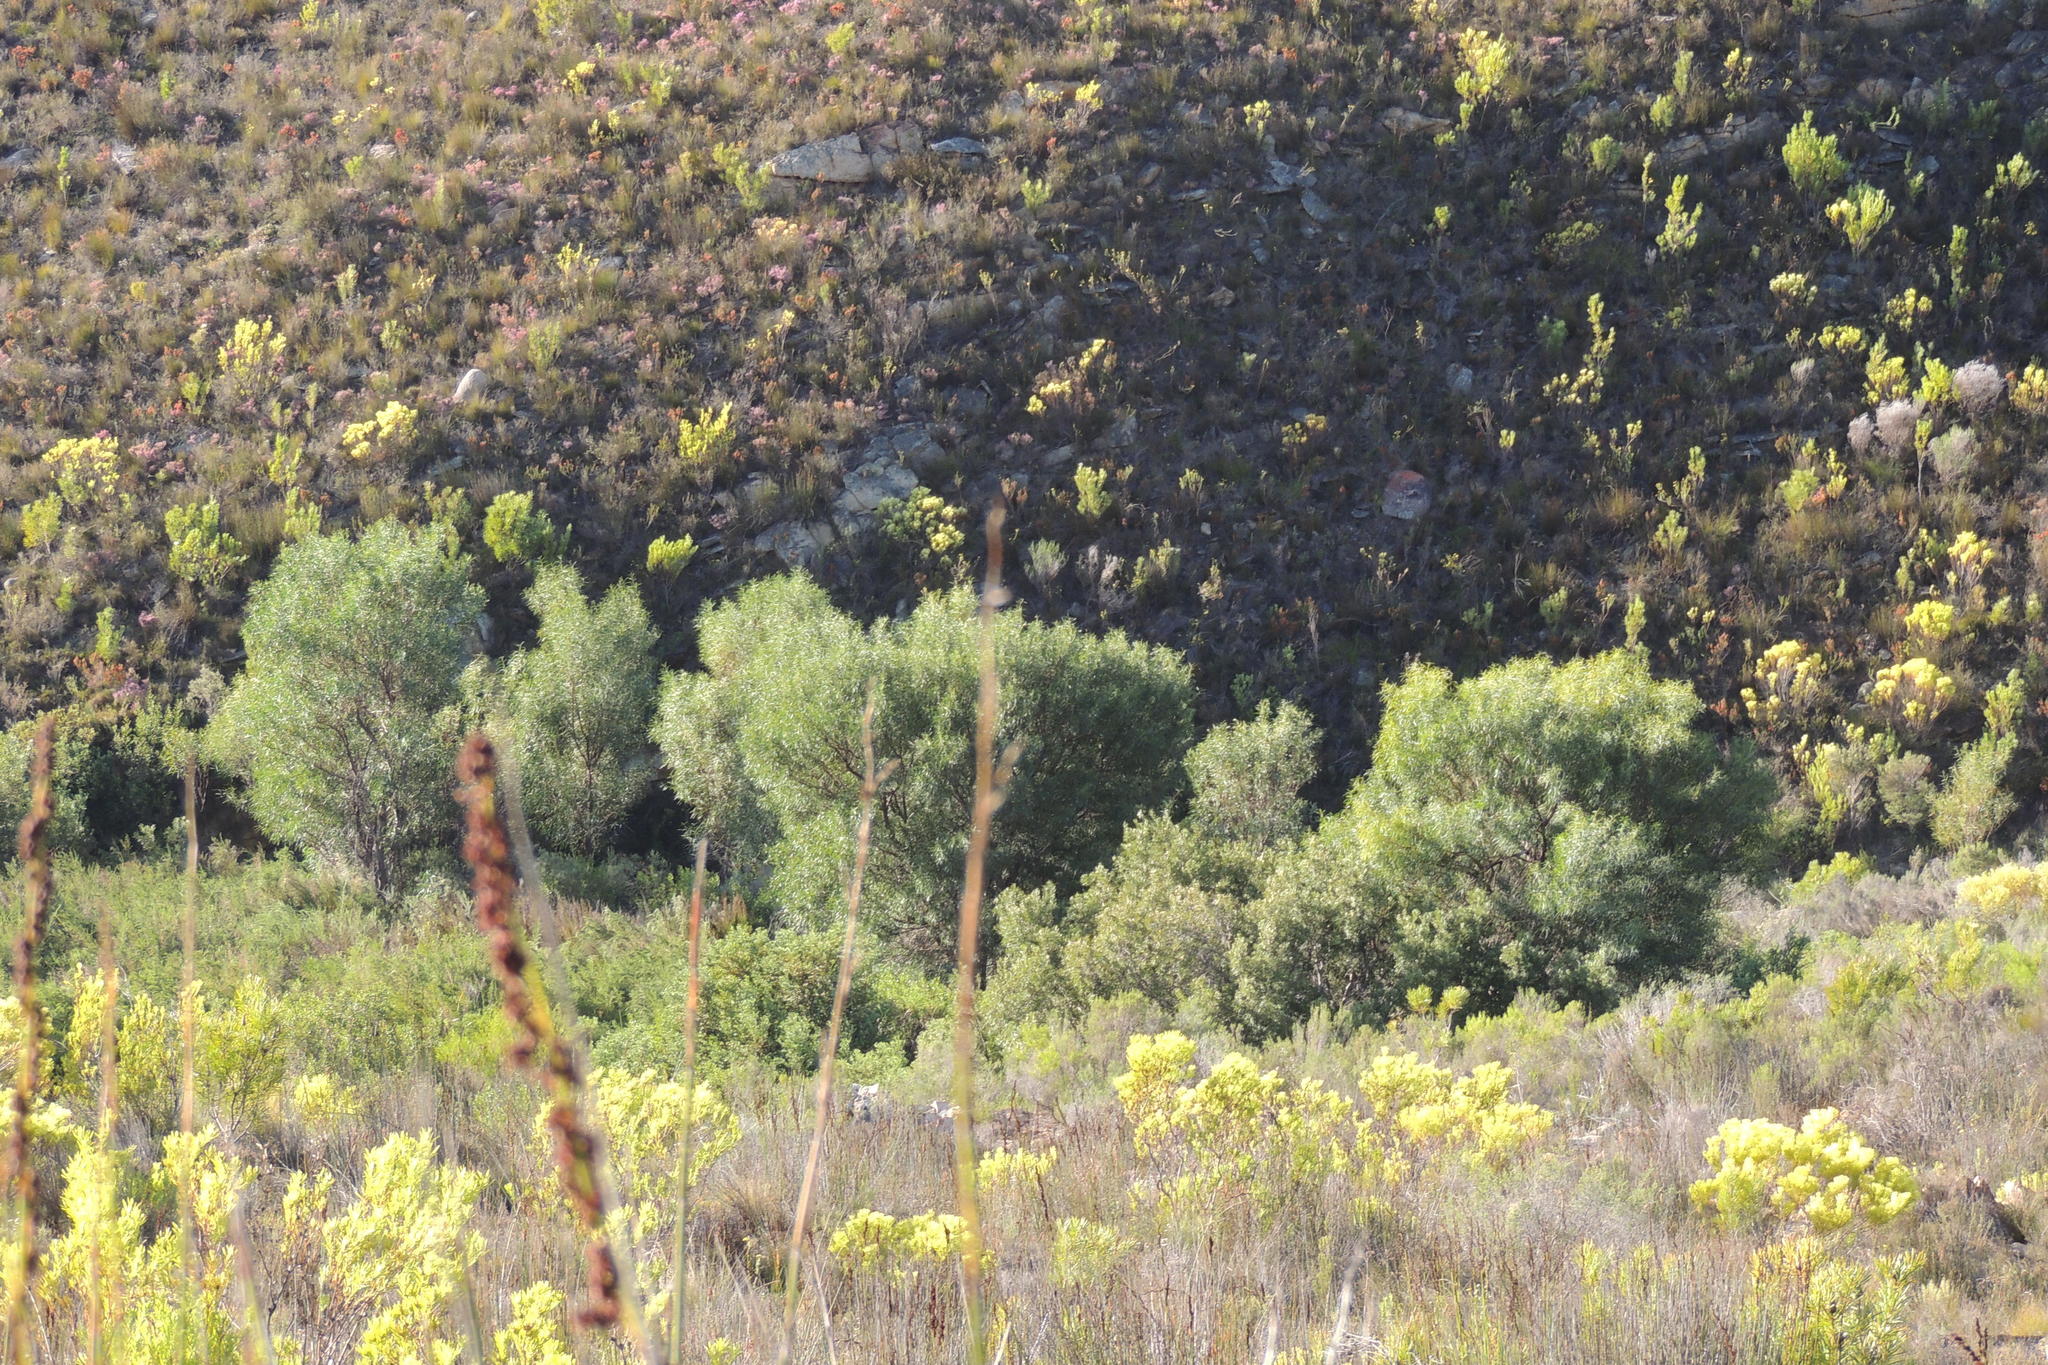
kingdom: Plantae
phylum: Tracheophyta
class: Magnoliopsida
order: Fabales
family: Fabaceae
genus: Acacia
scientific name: Acacia saligna
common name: Orange wattle
